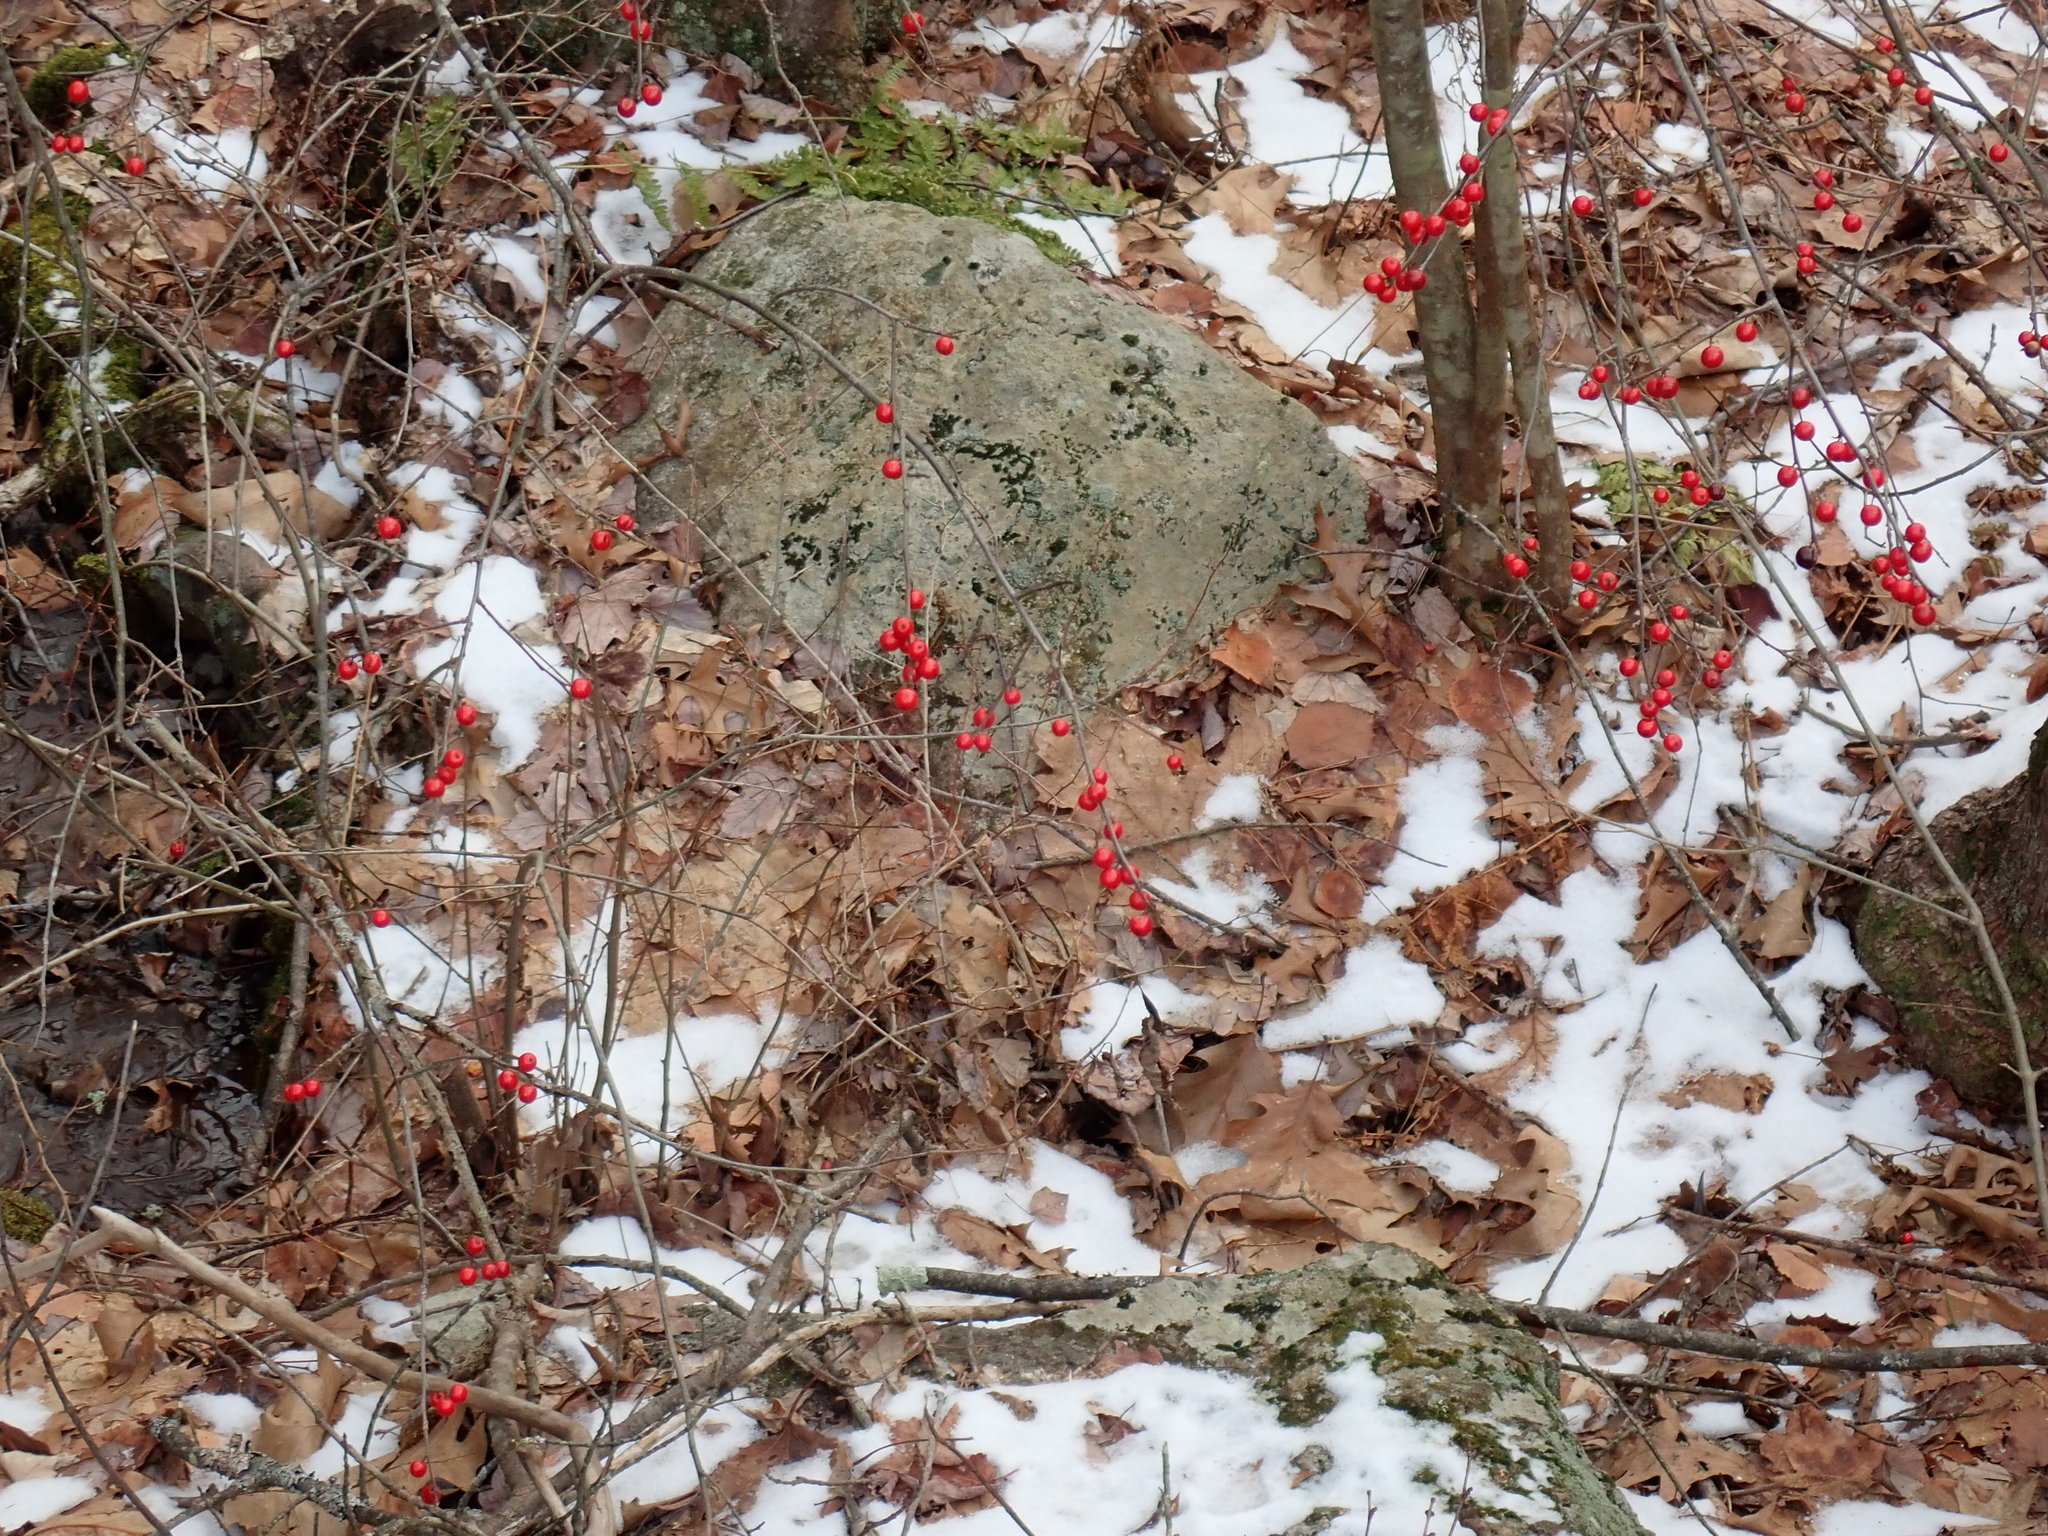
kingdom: Plantae
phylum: Tracheophyta
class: Magnoliopsida
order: Aquifoliales
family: Aquifoliaceae
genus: Ilex
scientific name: Ilex verticillata
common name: Virginia winterberry
